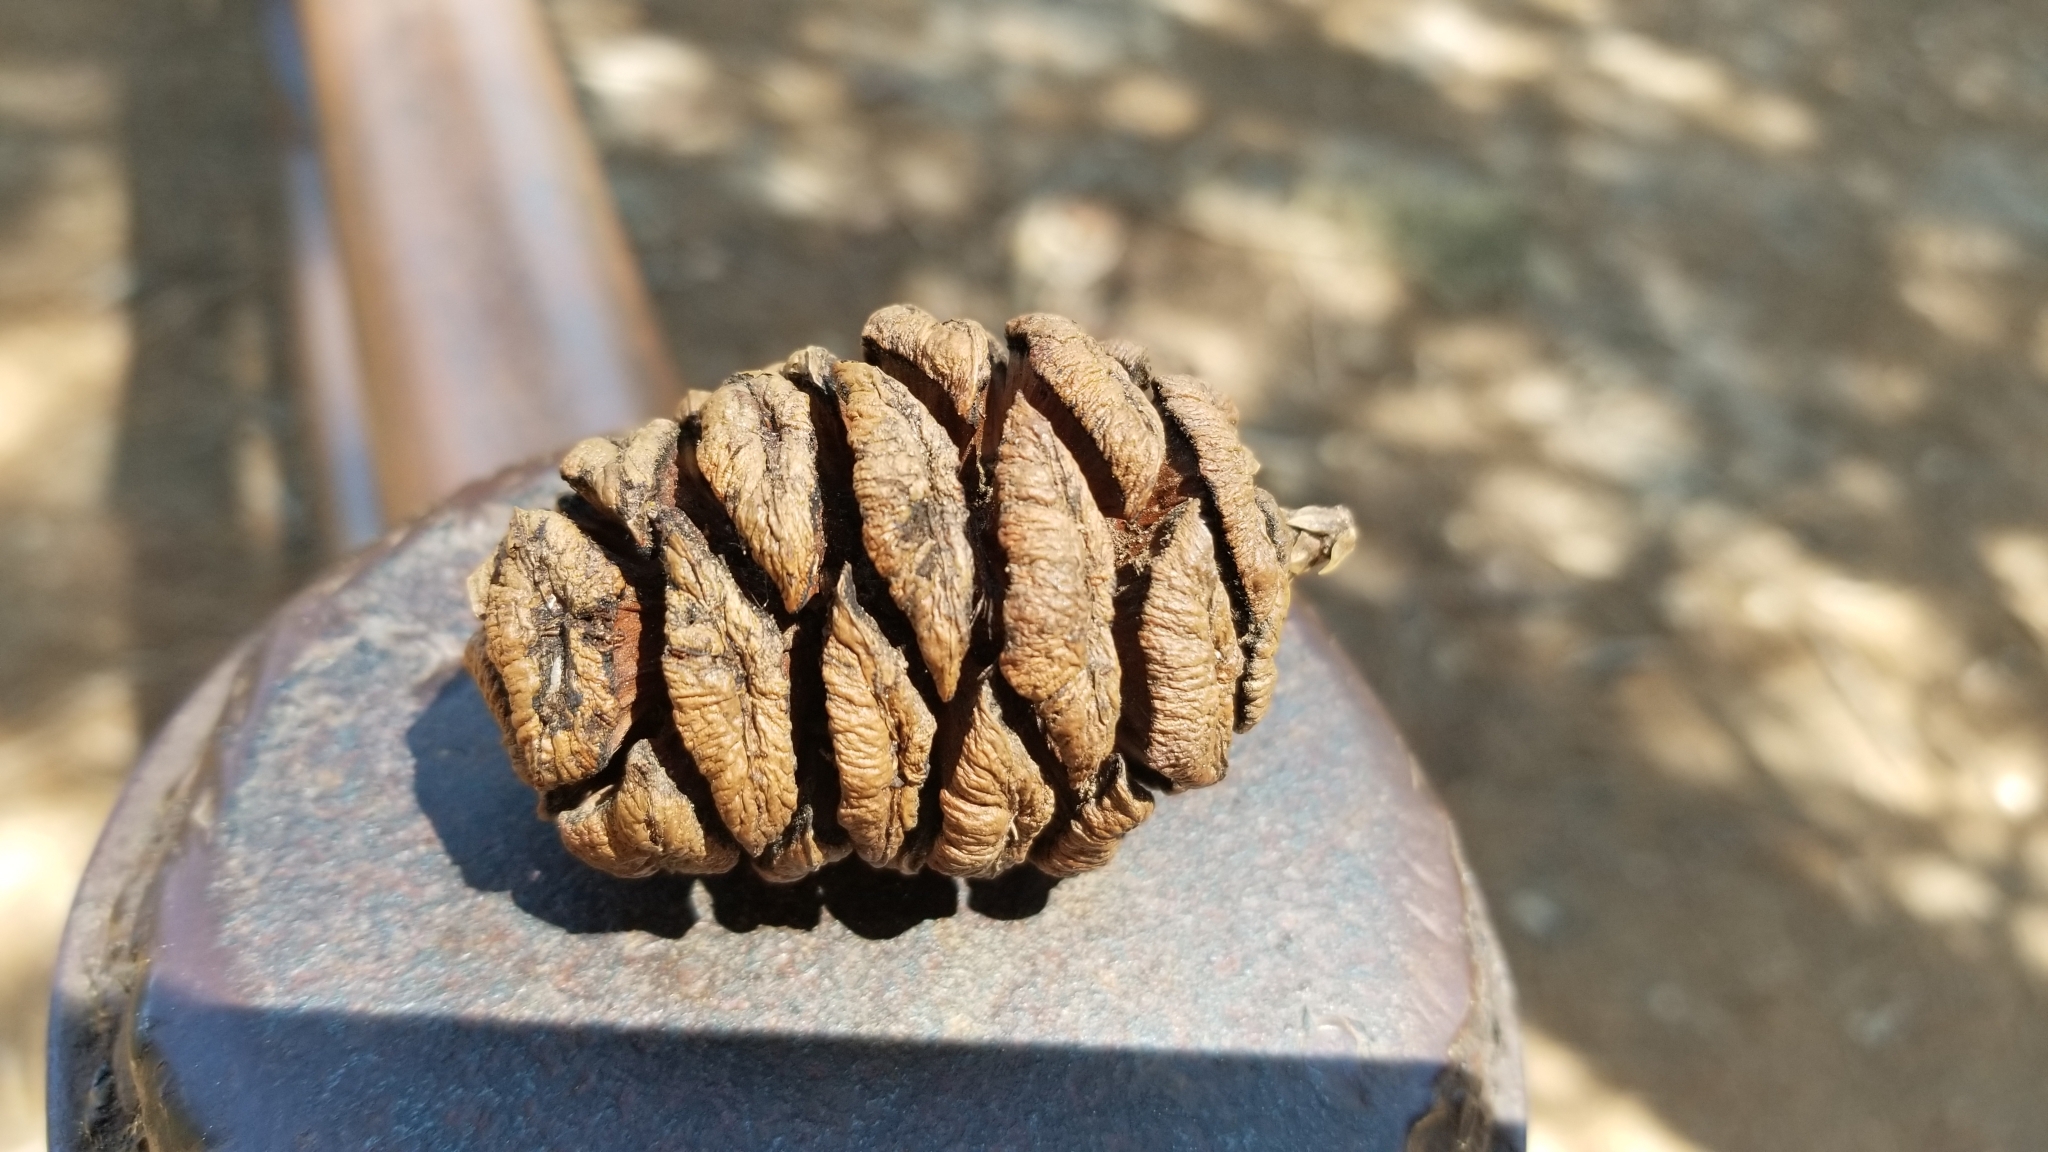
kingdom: Plantae
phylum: Tracheophyta
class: Pinopsida
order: Pinales
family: Cupressaceae
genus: Sequoiadendron
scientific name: Sequoiadendron giganteum
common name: Wellingtonia
